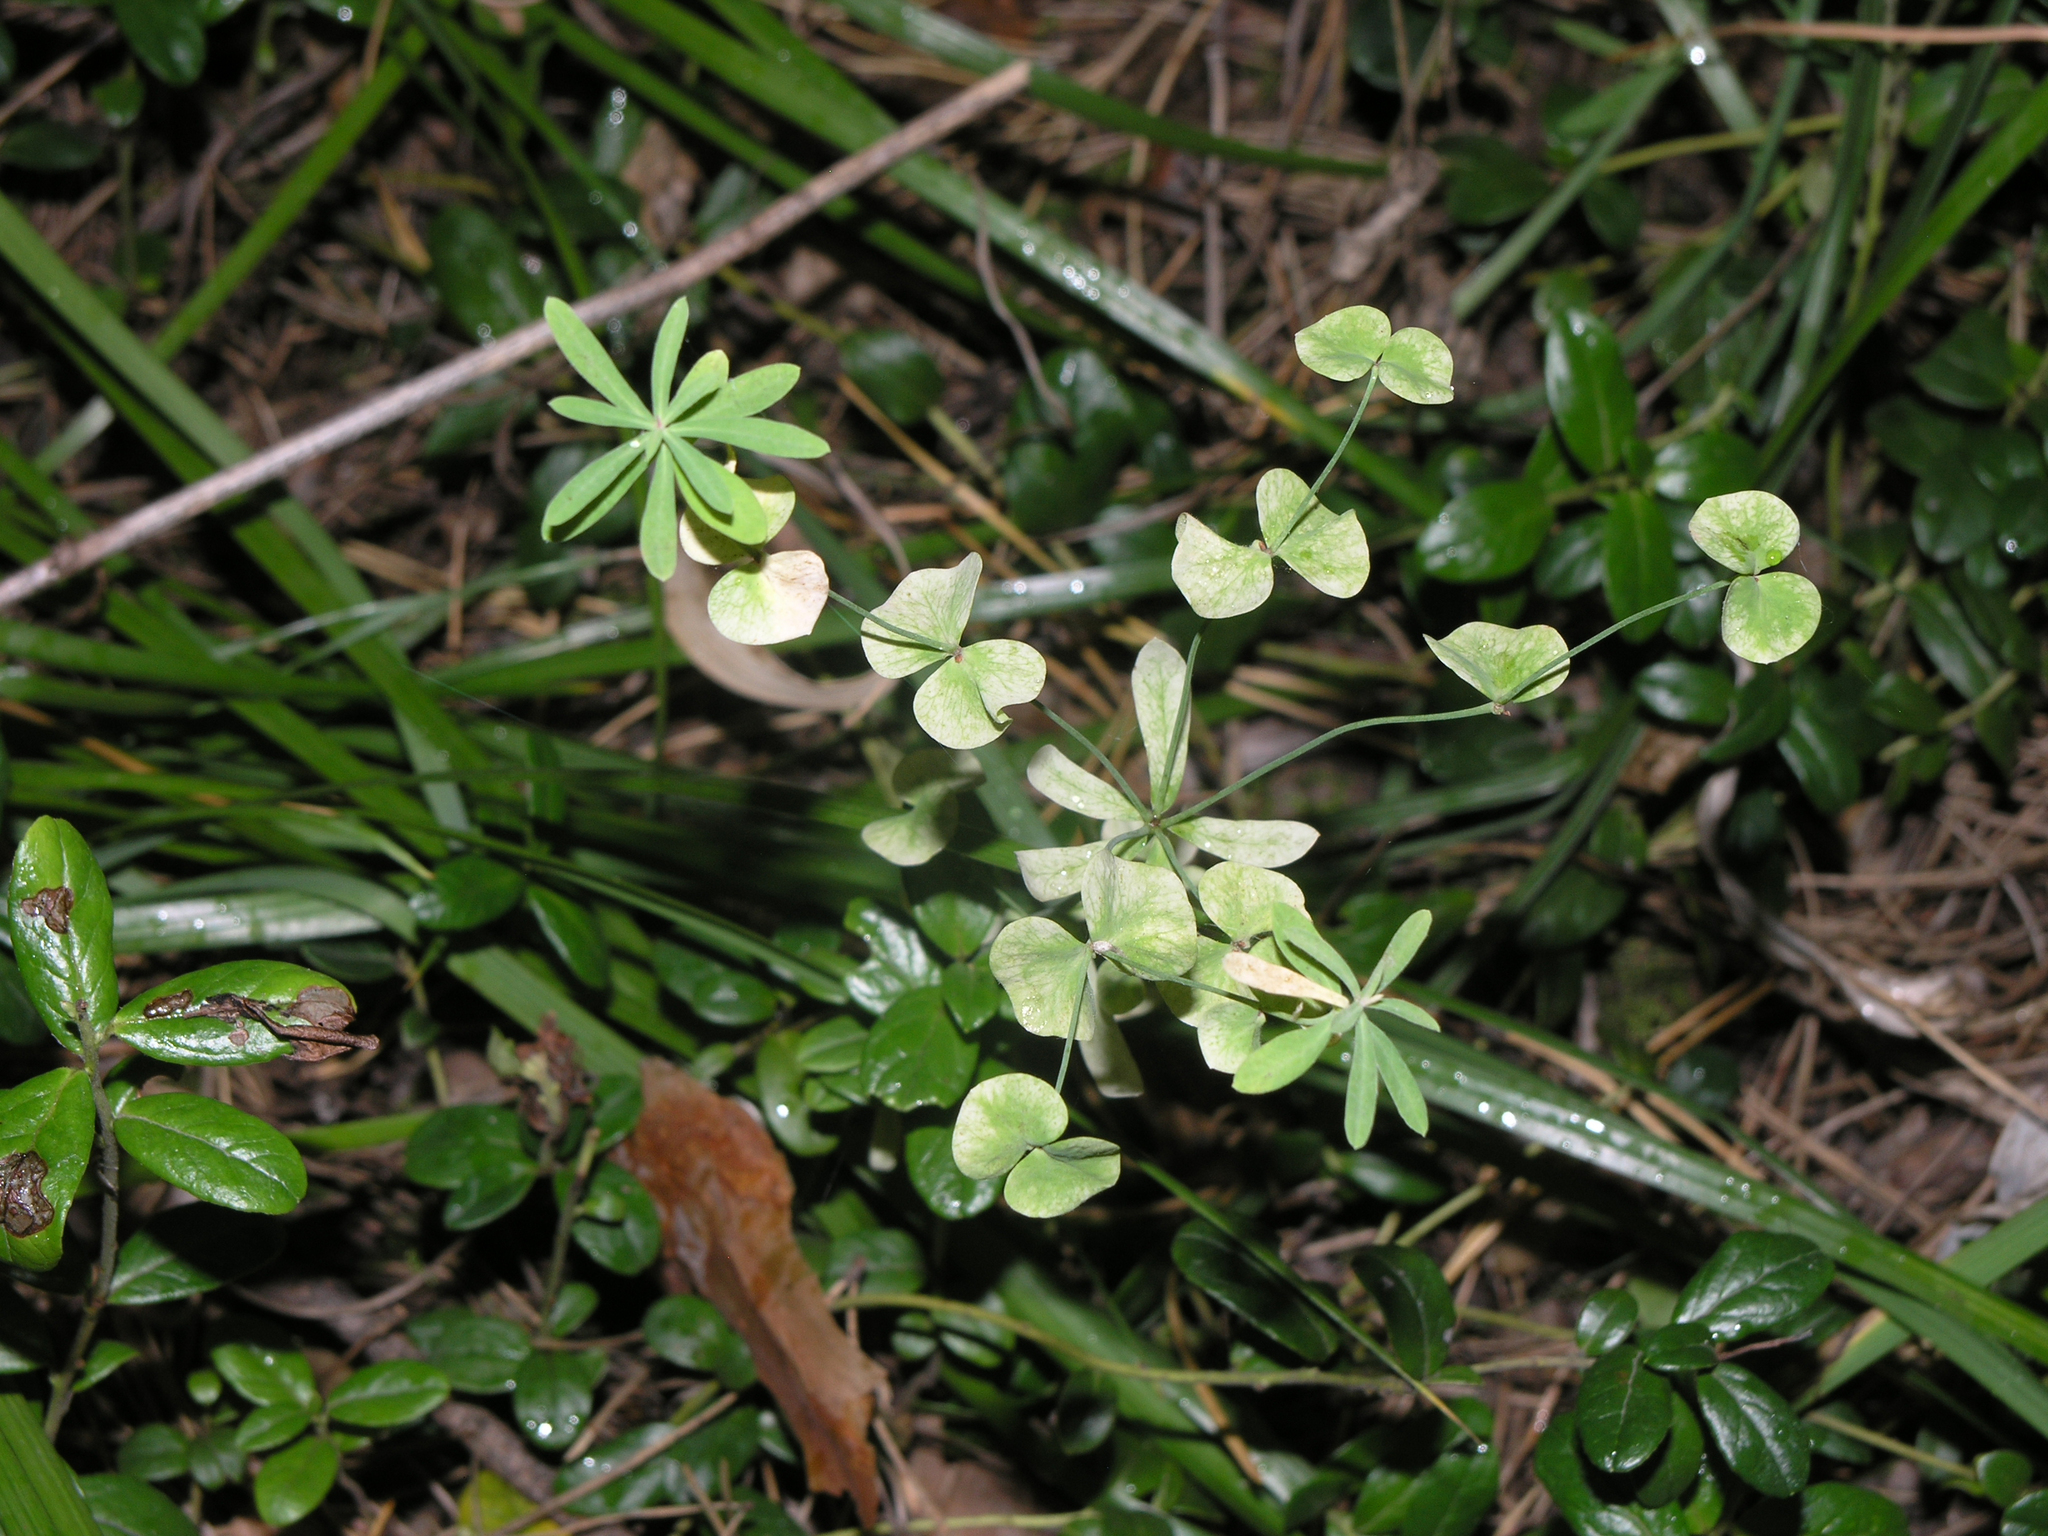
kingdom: Plantae
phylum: Tracheophyta
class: Magnoliopsida
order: Malpighiales
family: Euphorbiaceae
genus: Euphorbia
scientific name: Euphorbia borealis
